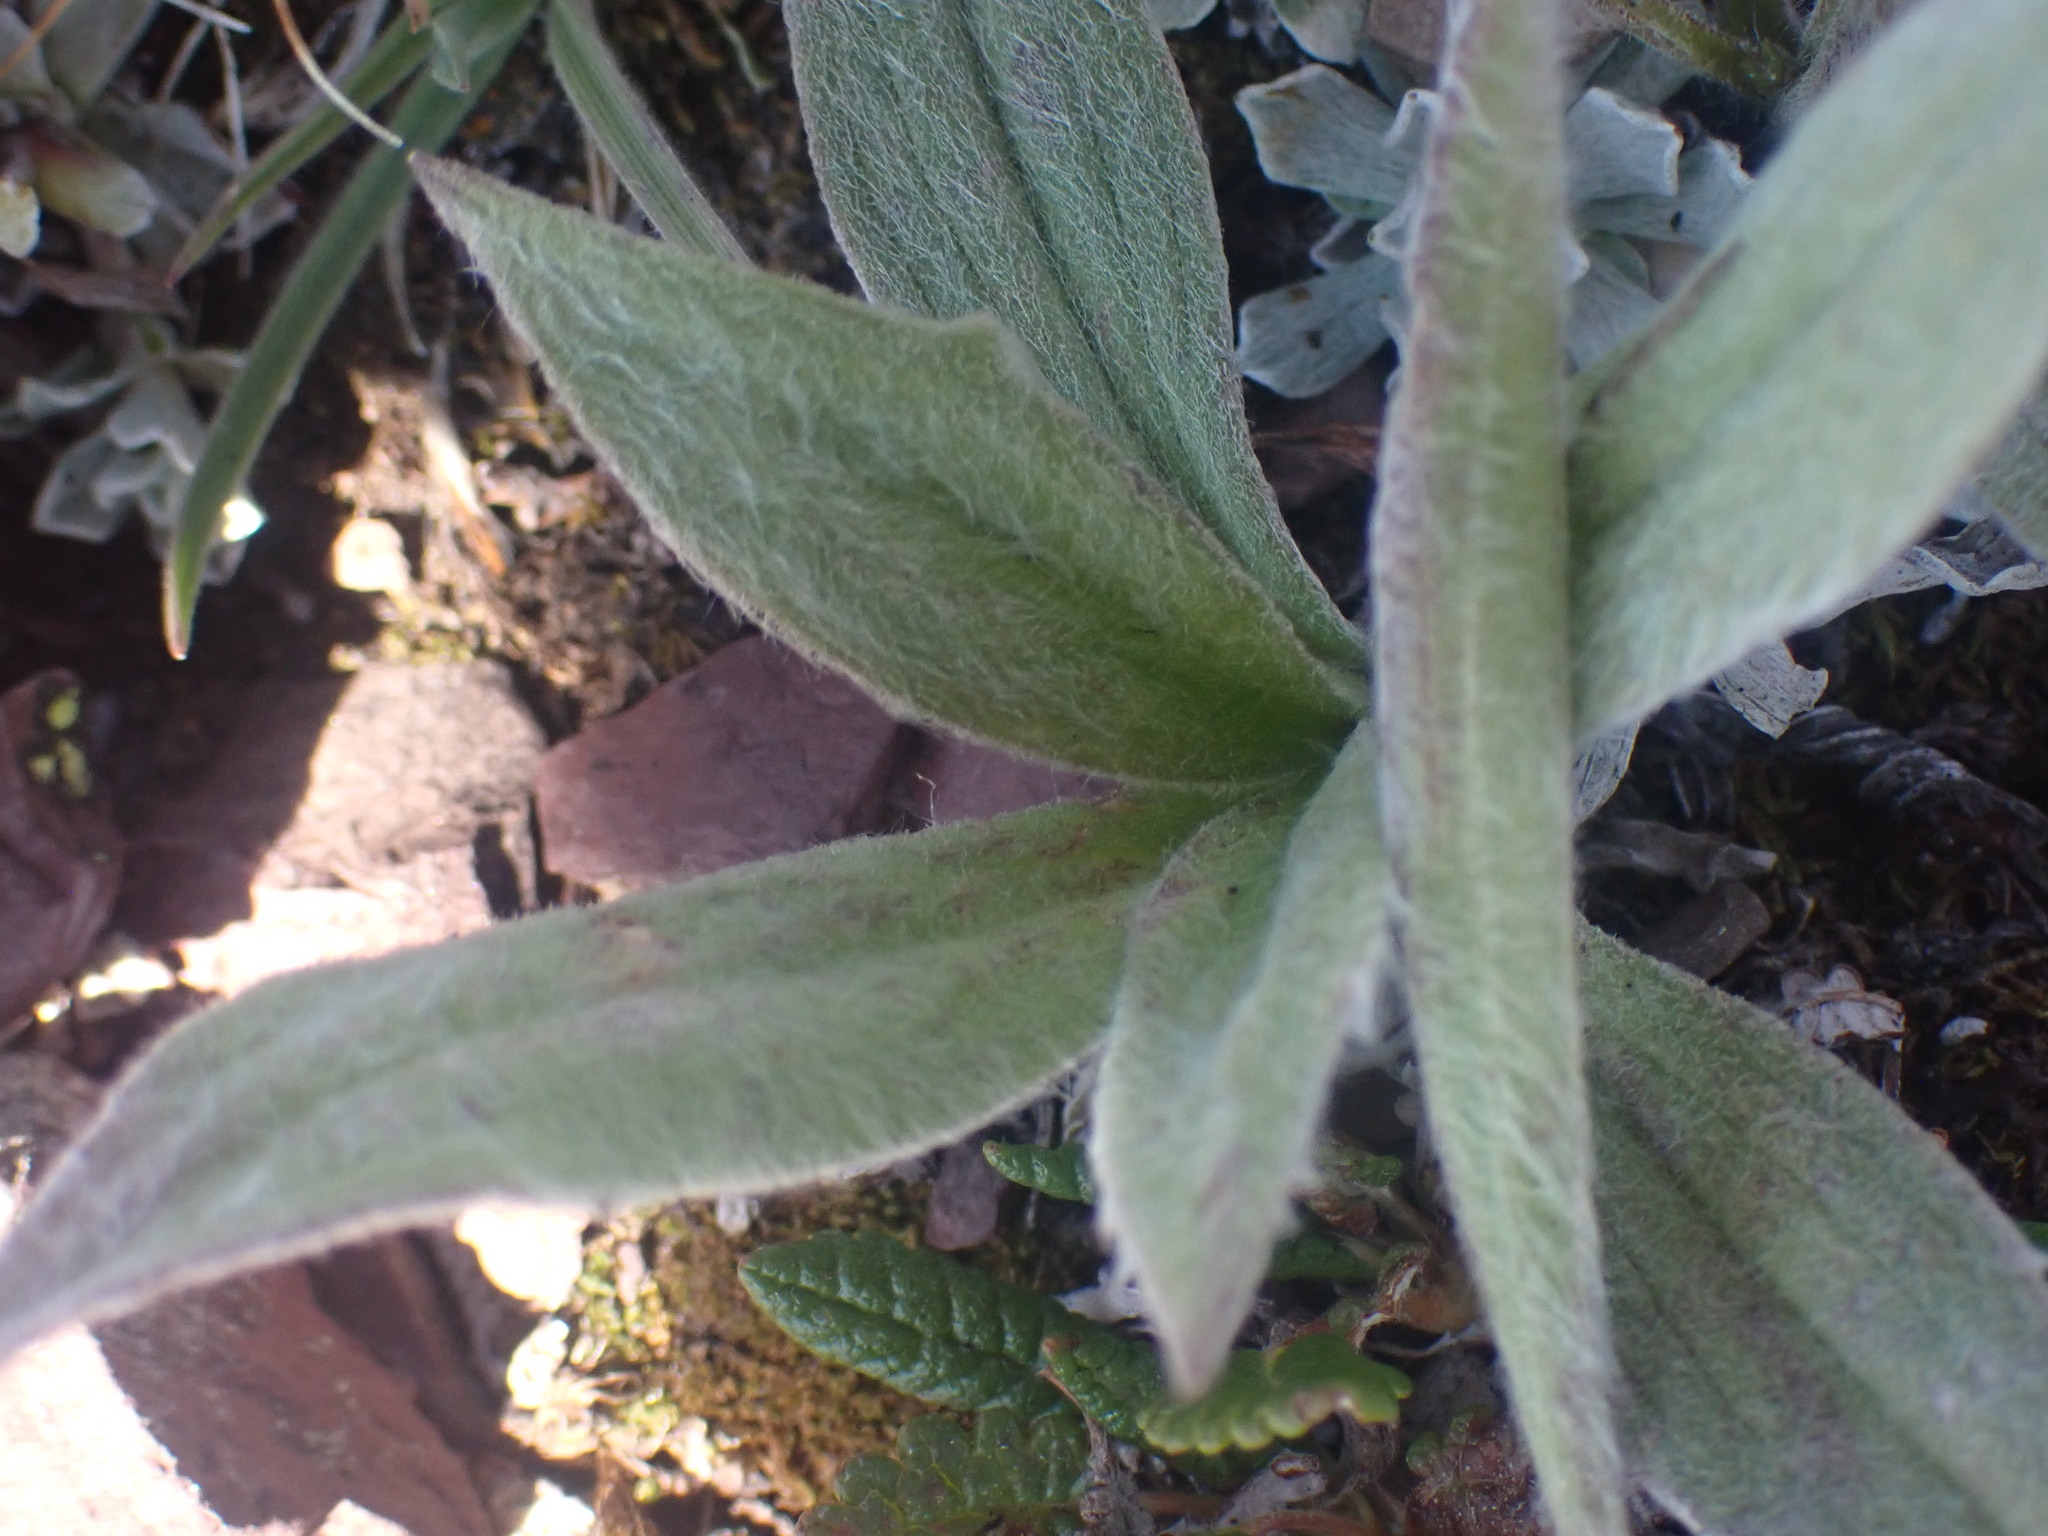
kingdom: Plantae
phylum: Tracheophyta
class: Magnoliopsida
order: Asterales
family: Asteraceae
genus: Arnica
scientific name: Arnica angustifolia
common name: Arctic arnica
